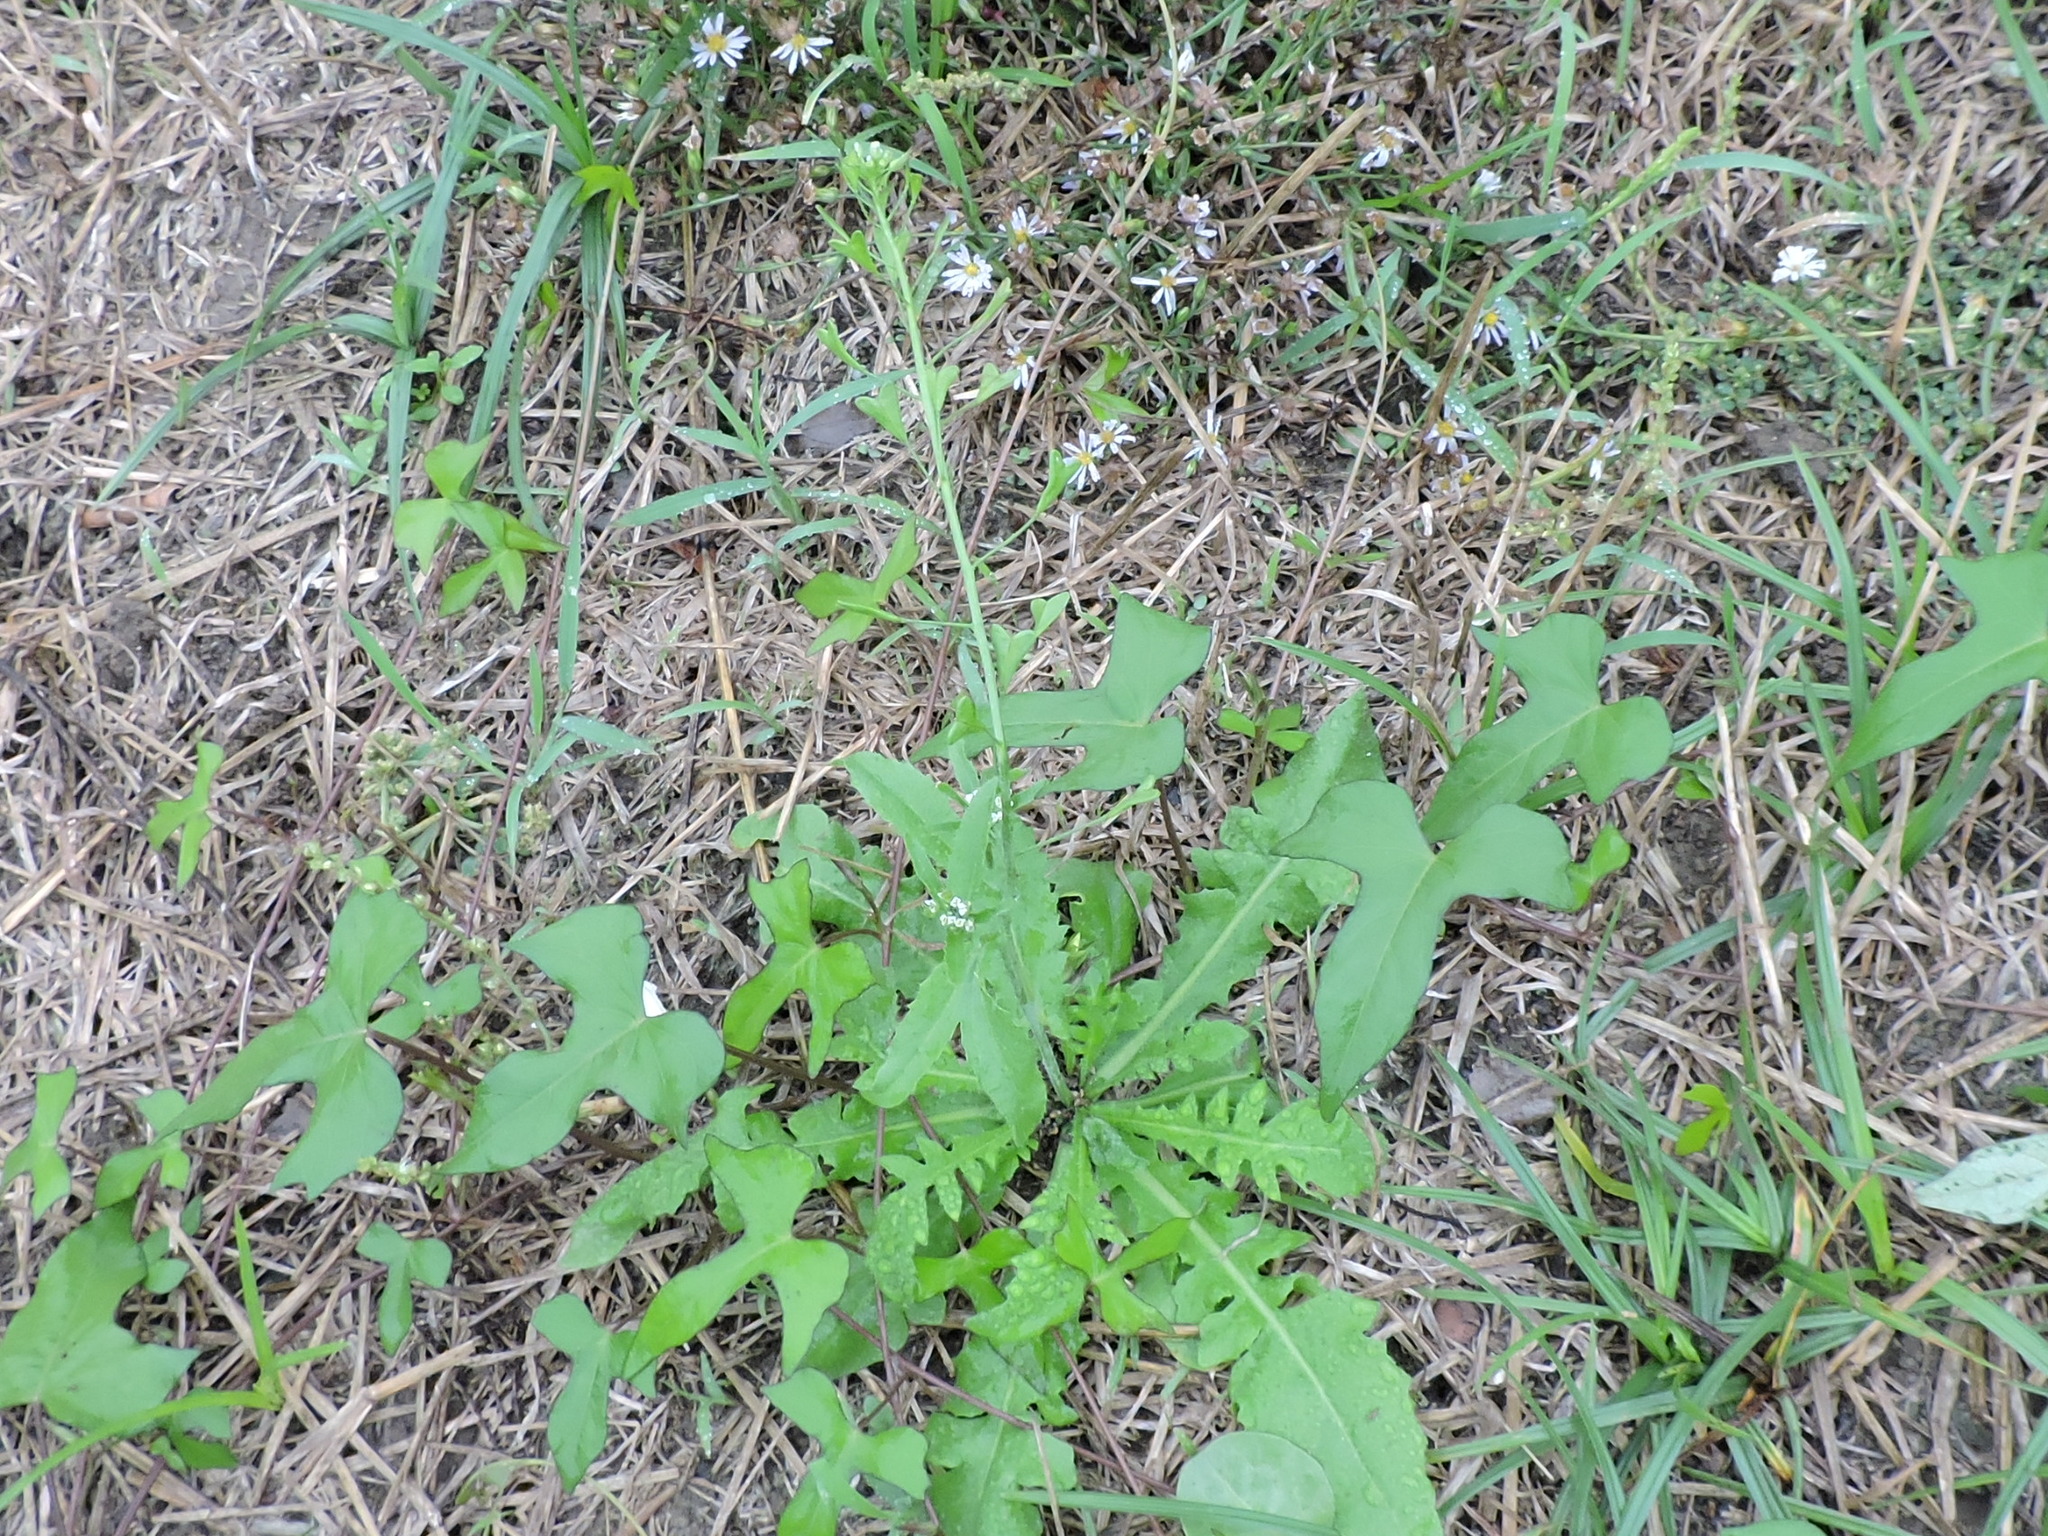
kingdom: Plantae
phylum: Tracheophyta
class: Magnoliopsida
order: Brassicales
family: Brassicaceae
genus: Capsella
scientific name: Capsella bursa-pastoris
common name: Shepherd's purse
